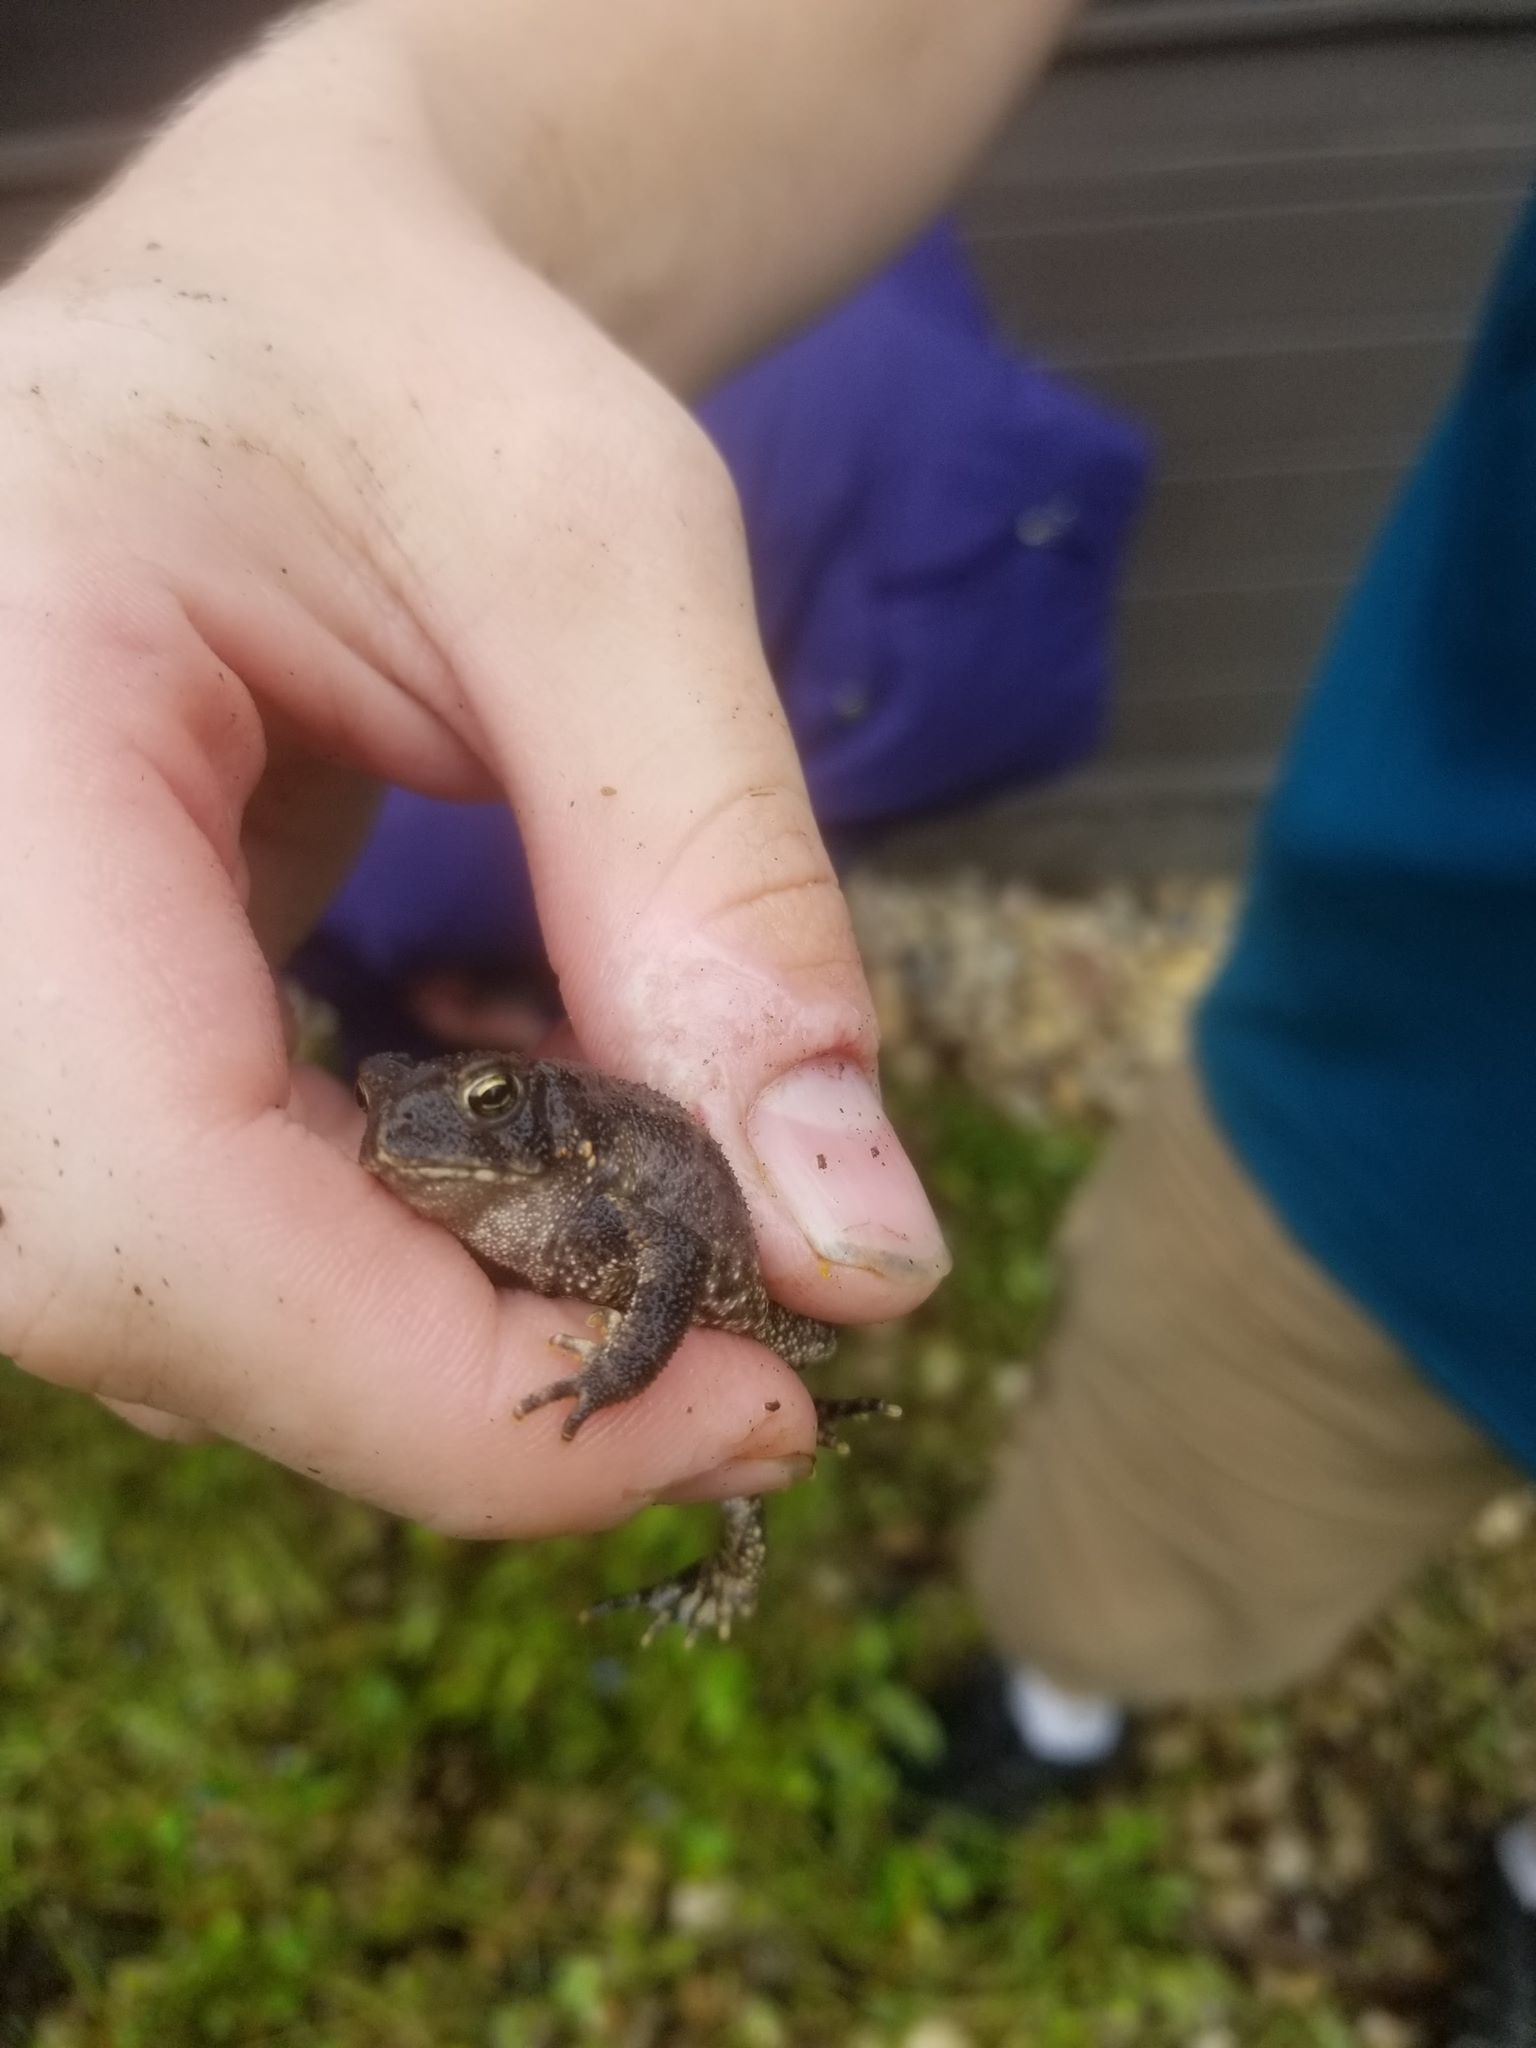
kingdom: Animalia
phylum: Chordata
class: Amphibia
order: Anura
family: Bufonidae
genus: Anaxyrus
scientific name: Anaxyrus americanus
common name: American toad
